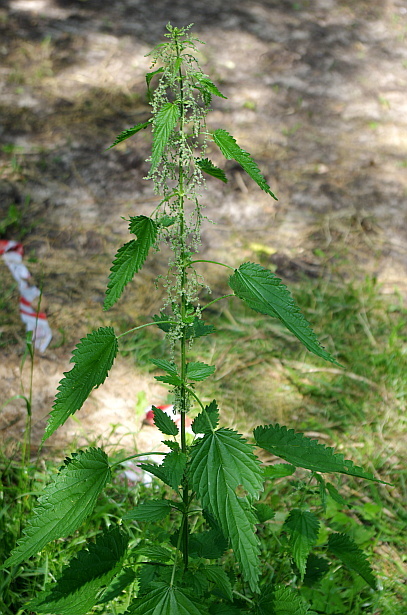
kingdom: Plantae
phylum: Tracheophyta
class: Magnoliopsida
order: Rosales
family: Urticaceae
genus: Urtica
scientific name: Urtica dioica
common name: Common nettle
